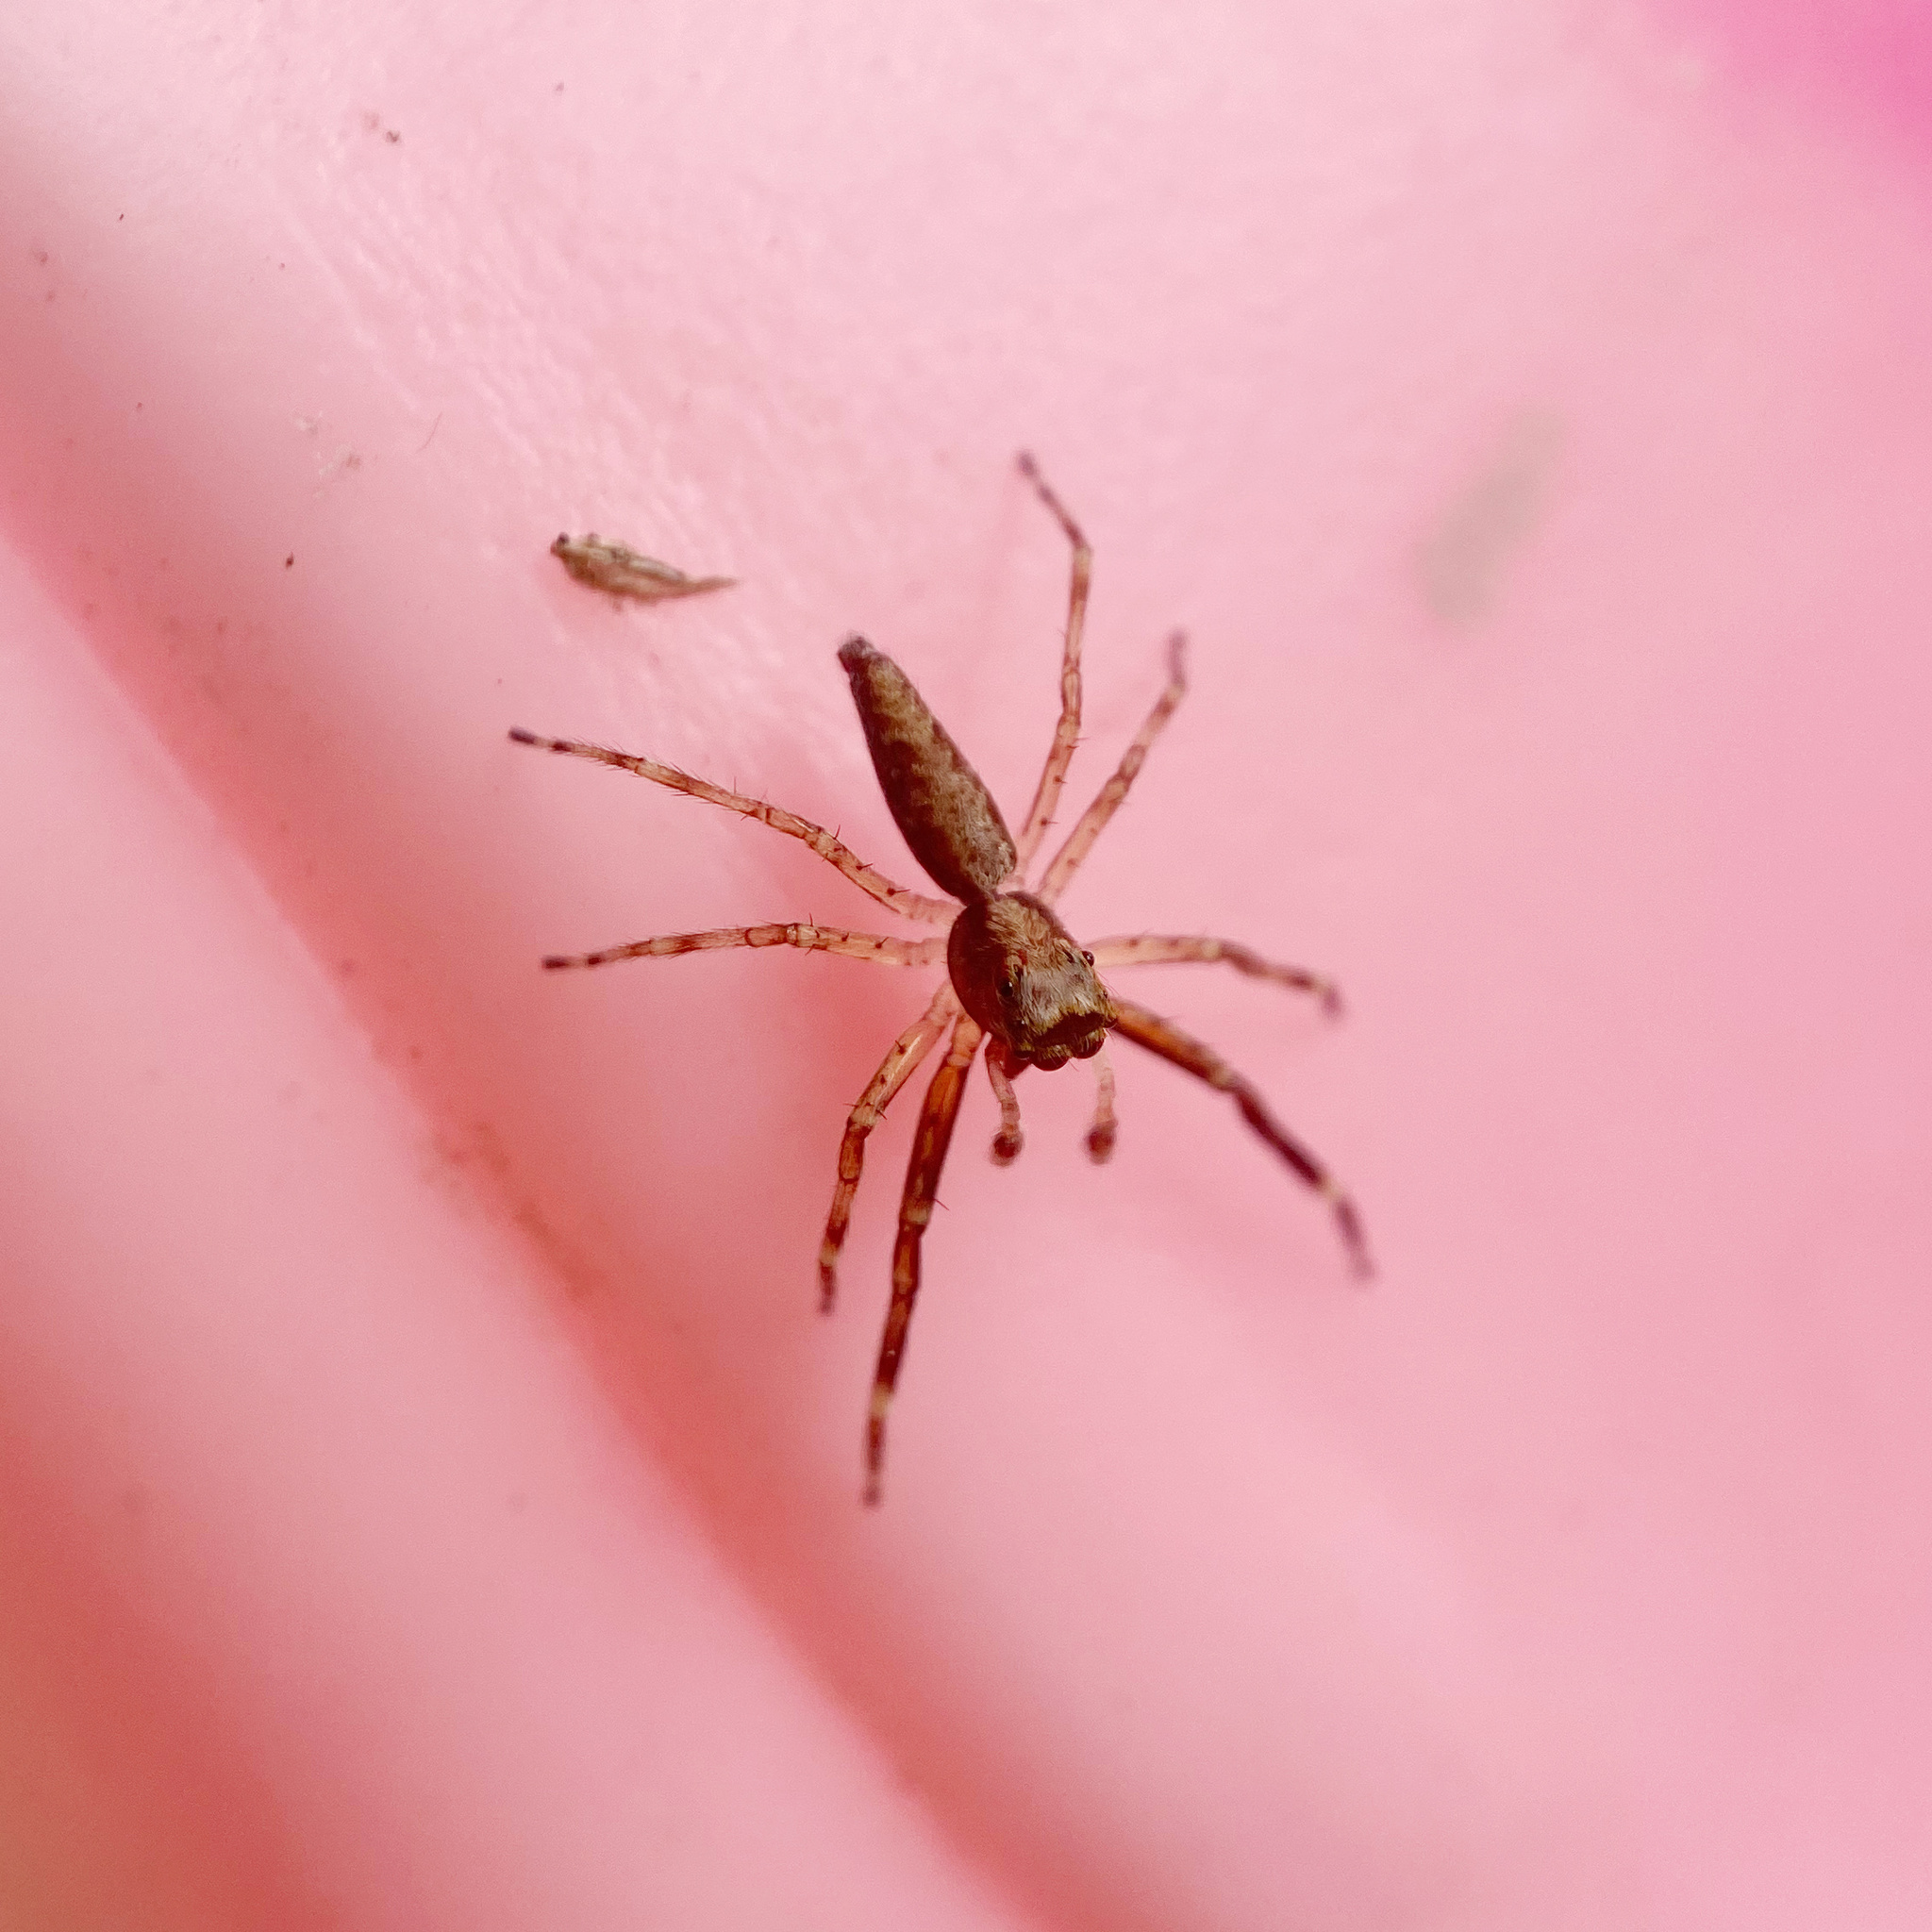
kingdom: Animalia
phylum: Arthropoda
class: Arachnida
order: Araneae
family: Salticidae
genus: Helpis
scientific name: Helpis minitabunda
